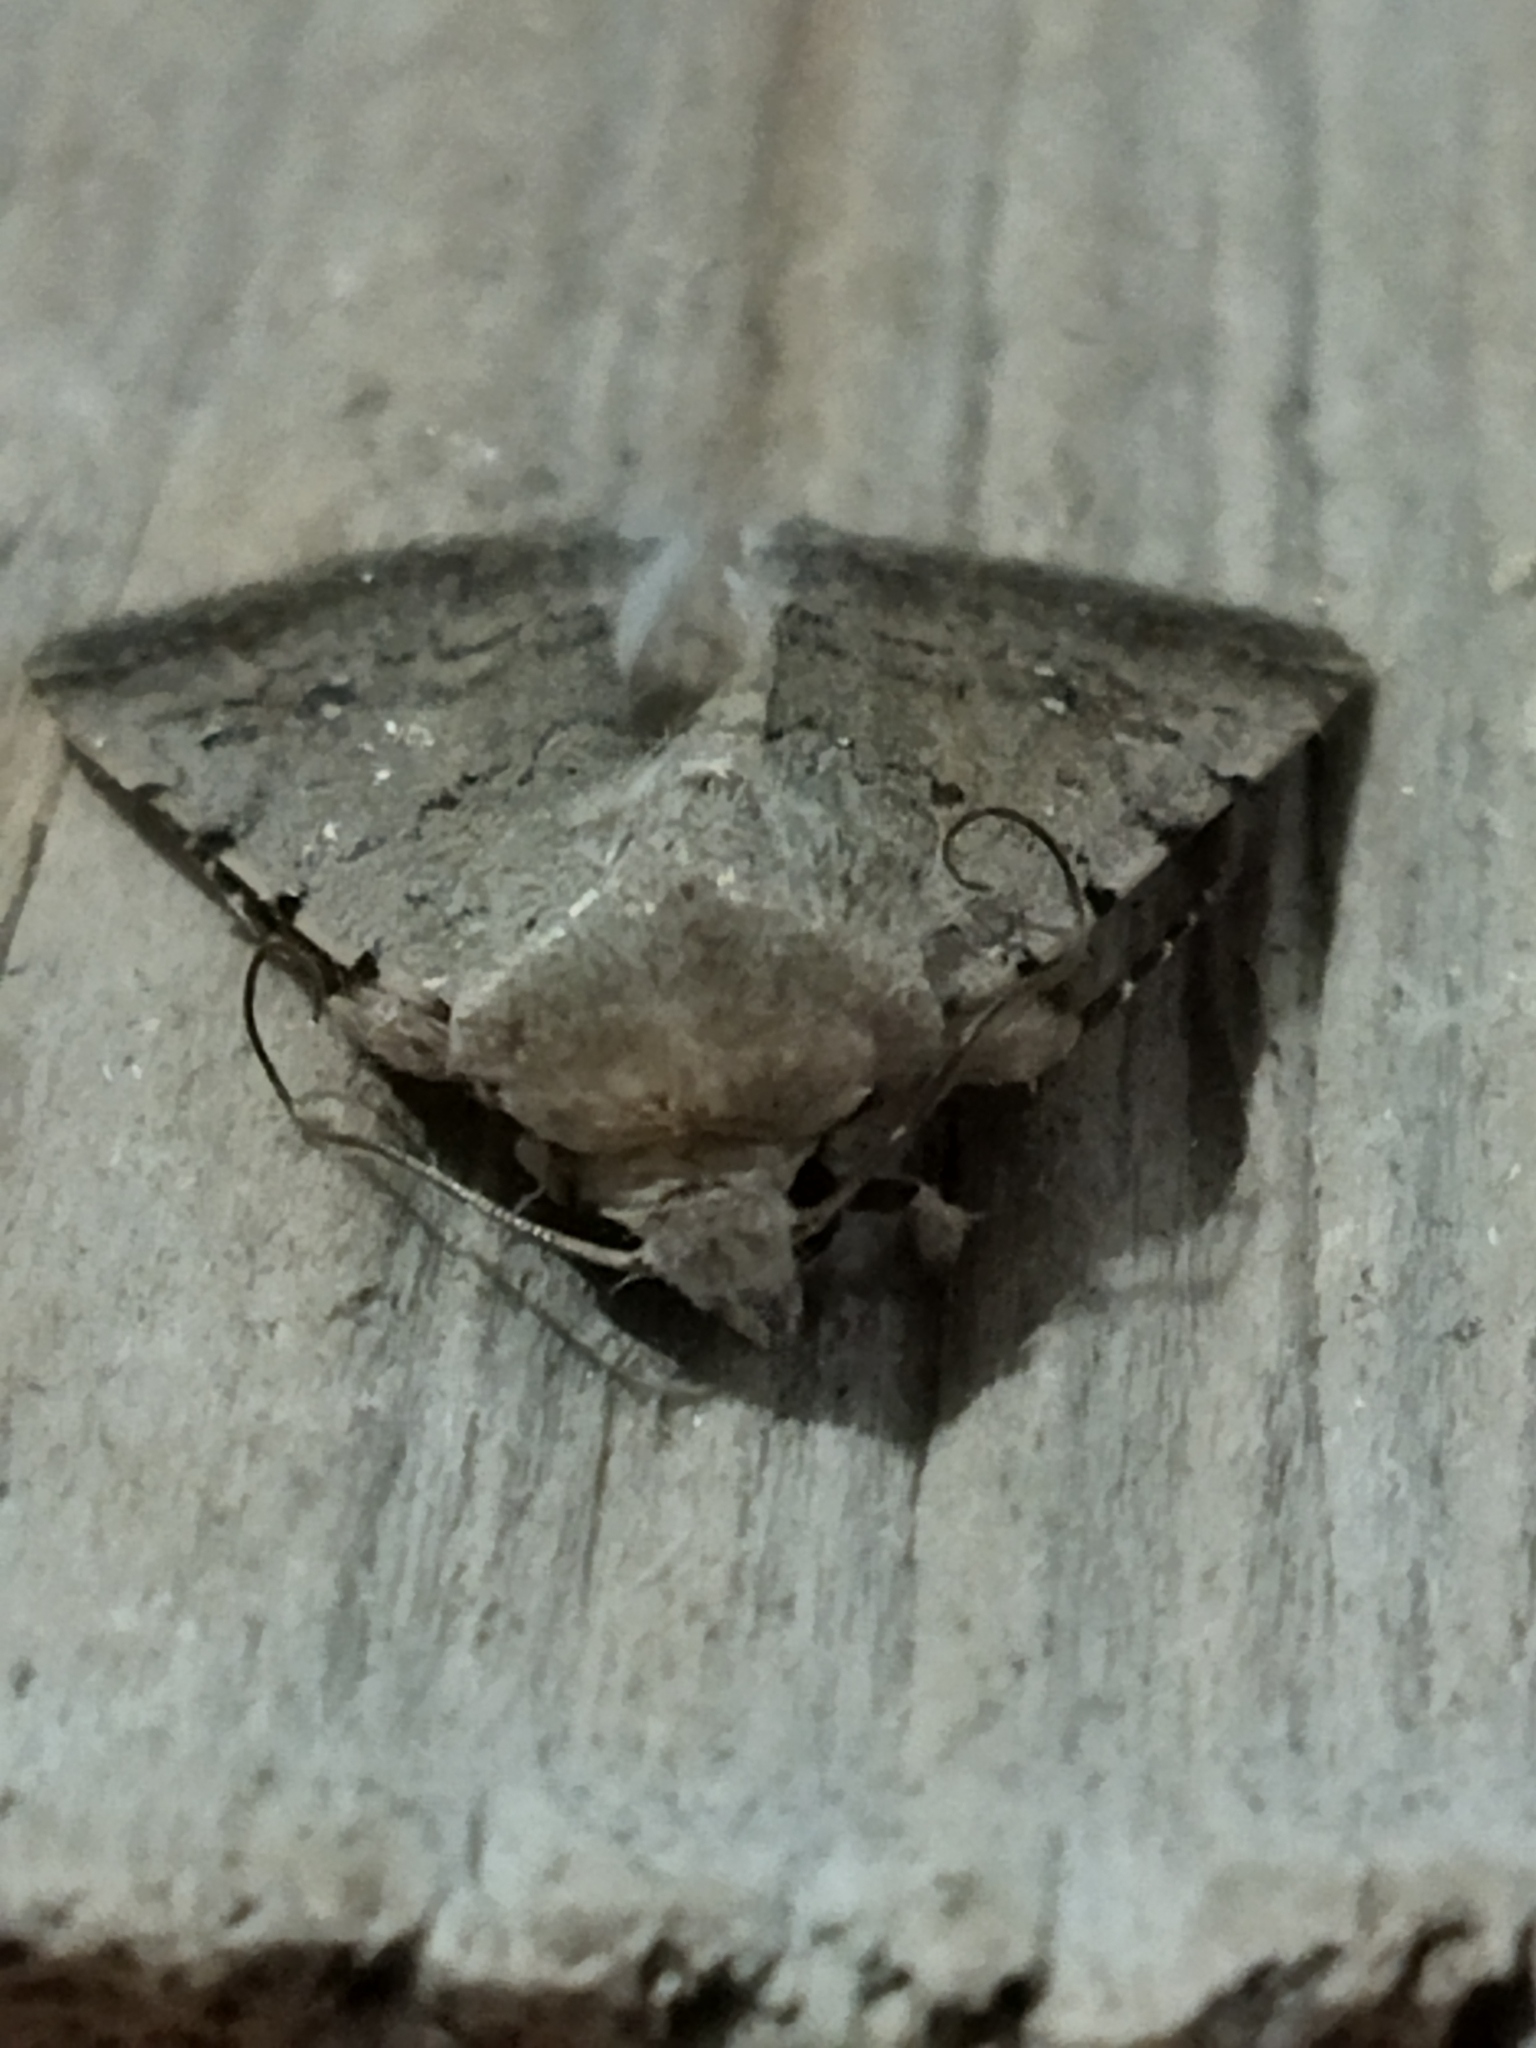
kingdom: Animalia
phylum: Arthropoda
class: Insecta
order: Lepidoptera
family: Noctuidae
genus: Caradrina
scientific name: Caradrina clavipalpis
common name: Pale mottled willow
